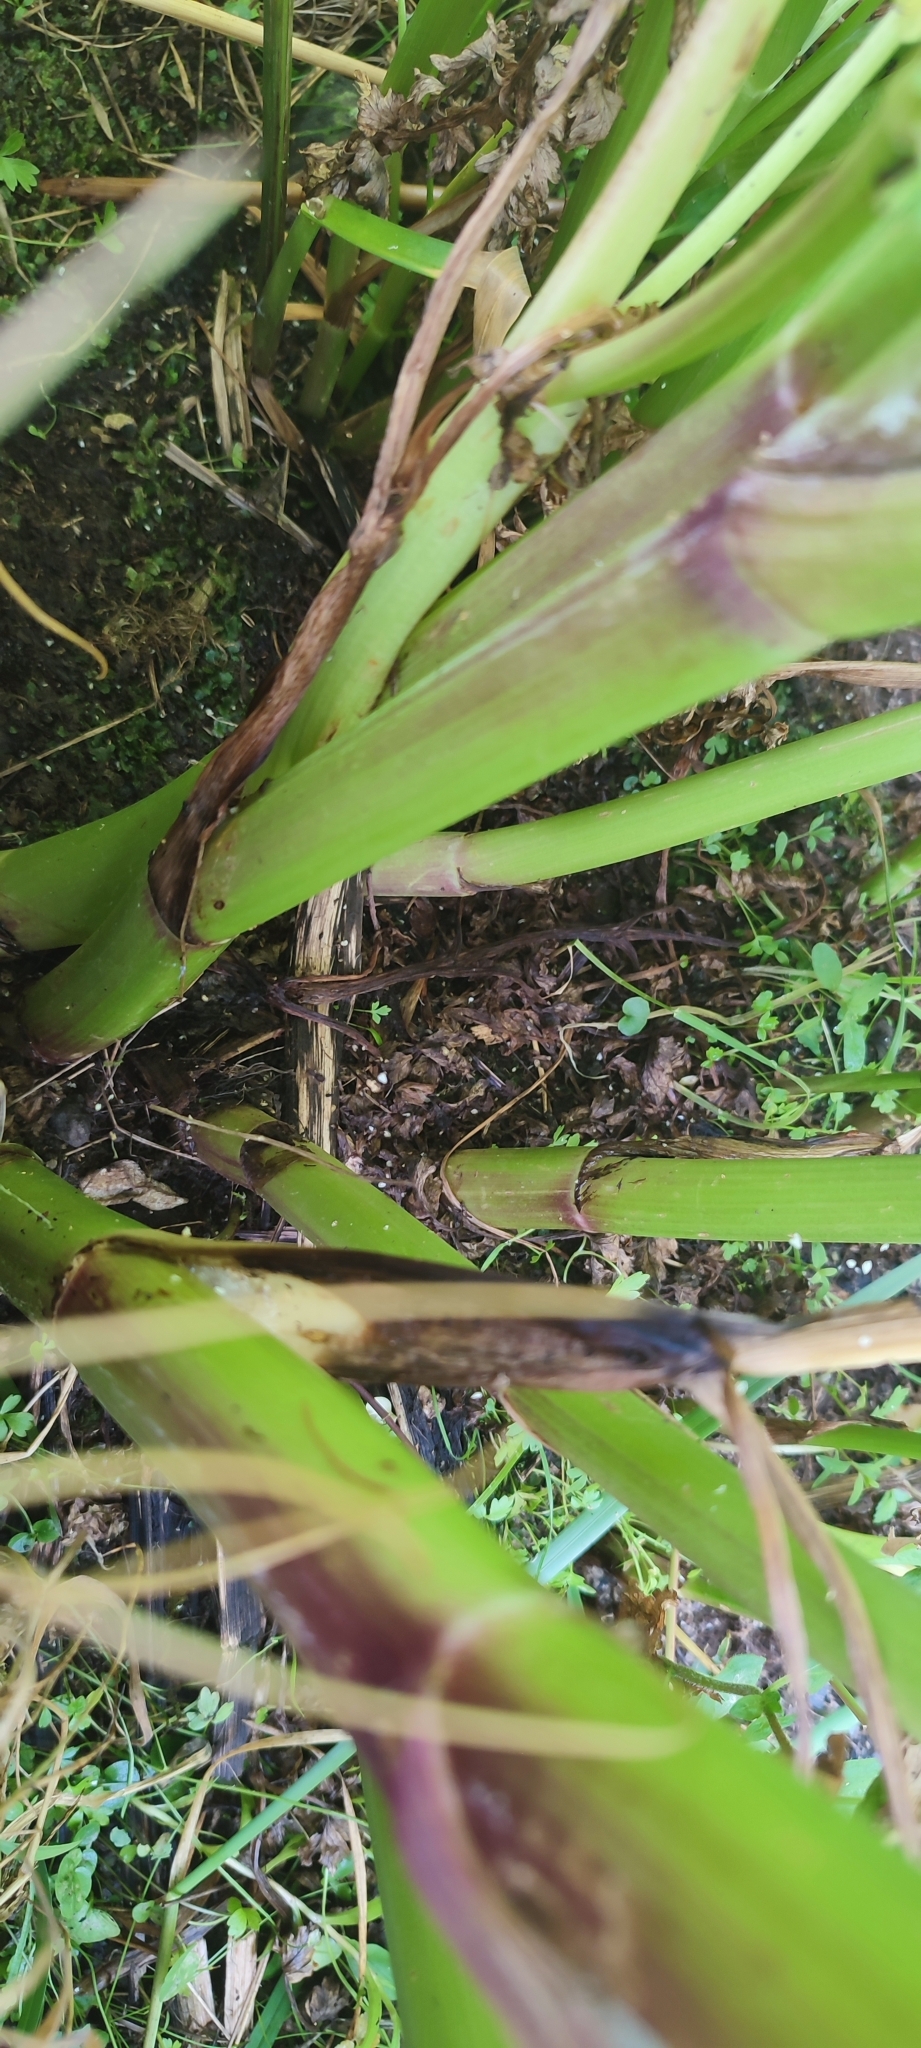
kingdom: Plantae
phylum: Tracheophyta
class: Magnoliopsida
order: Apiales
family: Apiaceae
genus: Oenanthe
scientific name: Oenanthe crocata
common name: Hemlock water-dropwort
